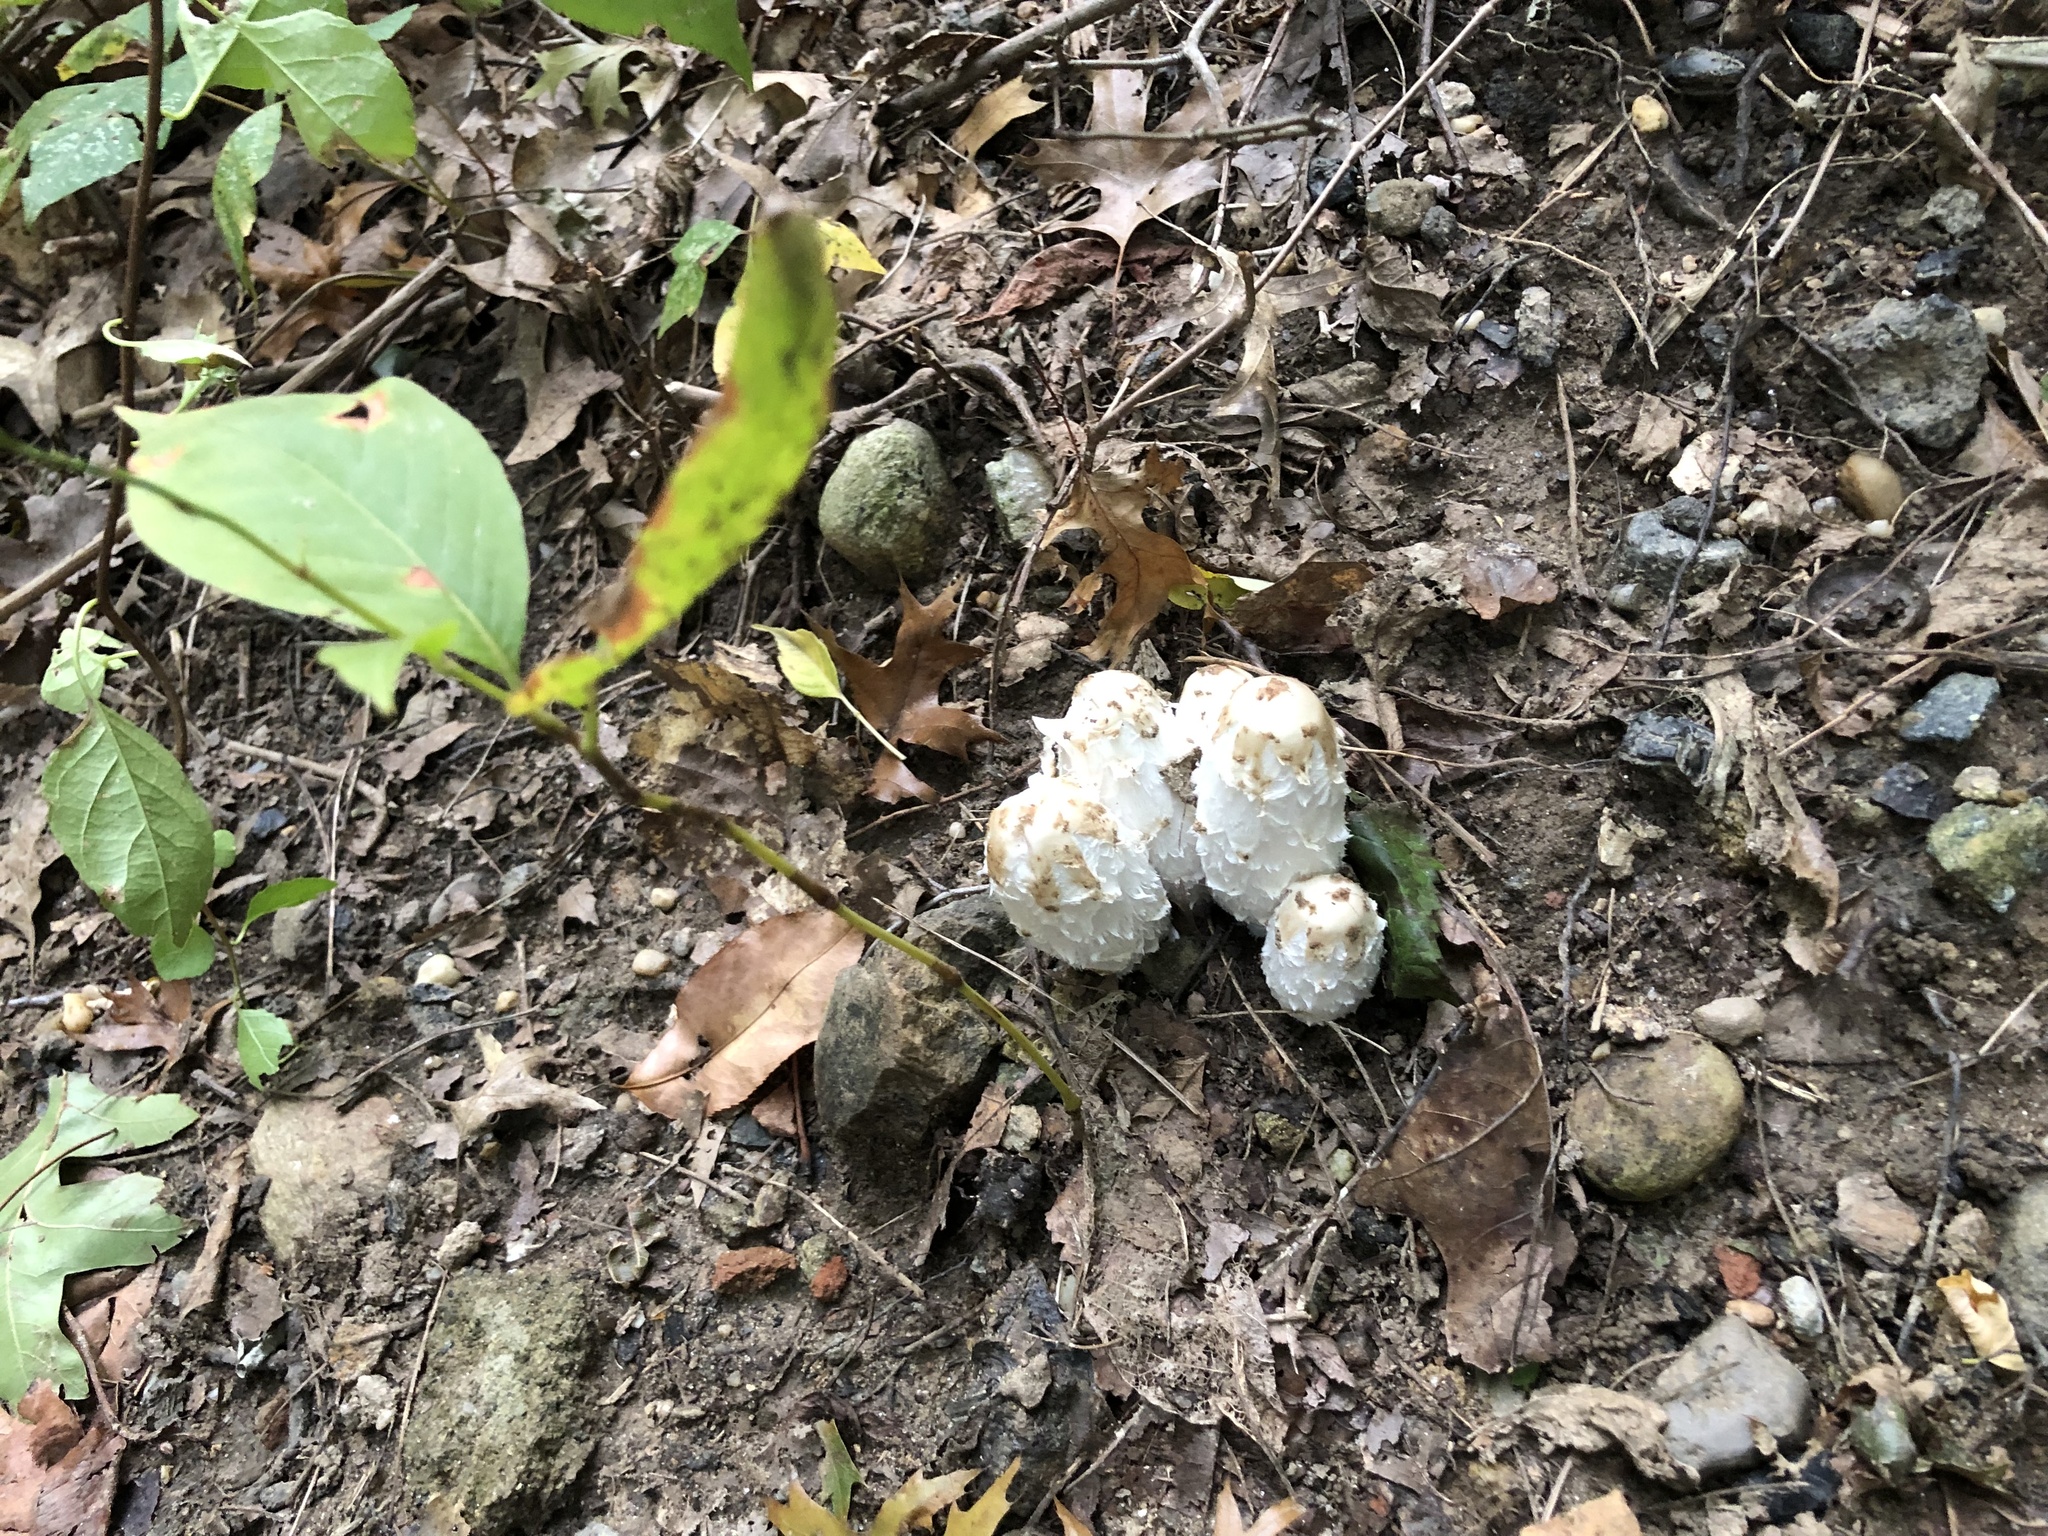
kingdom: Fungi
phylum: Basidiomycota
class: Agaricomycetes
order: Agaricales
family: Agaricaceae
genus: Coprinus
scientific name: Coprinus comatus
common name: Lawyer's wig
